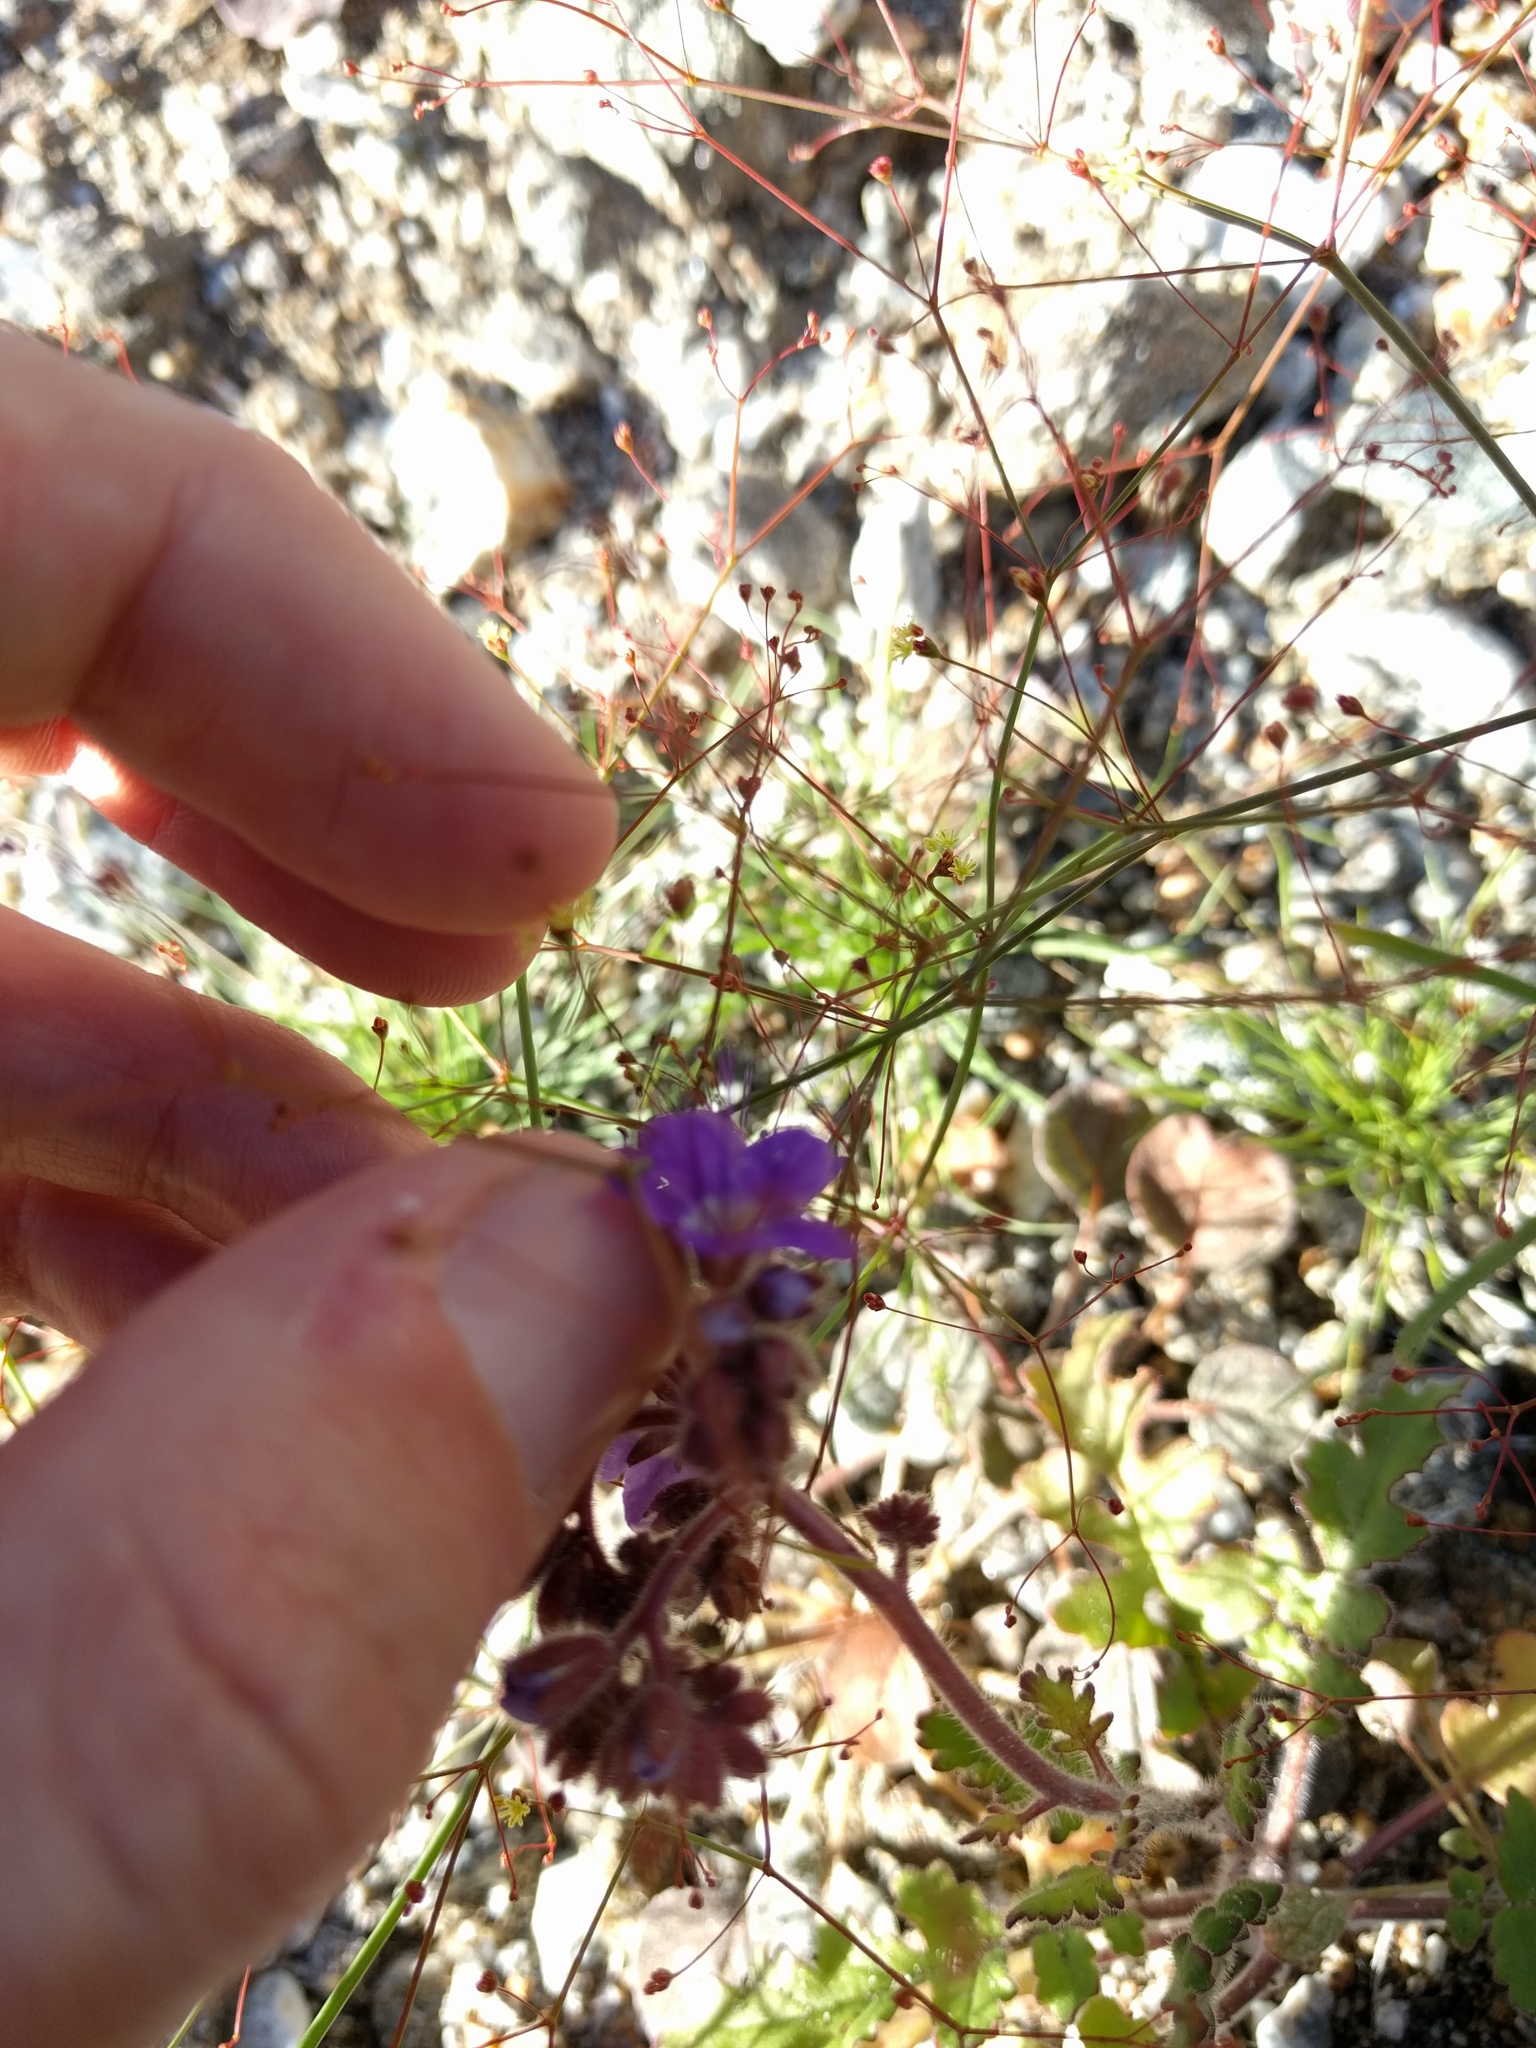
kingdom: Plantae
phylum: Tracheophyta
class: Magnoliopsida
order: Boraginales
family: Hydrophyllaceae
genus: Phacelia
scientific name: Phacelia crenulata
